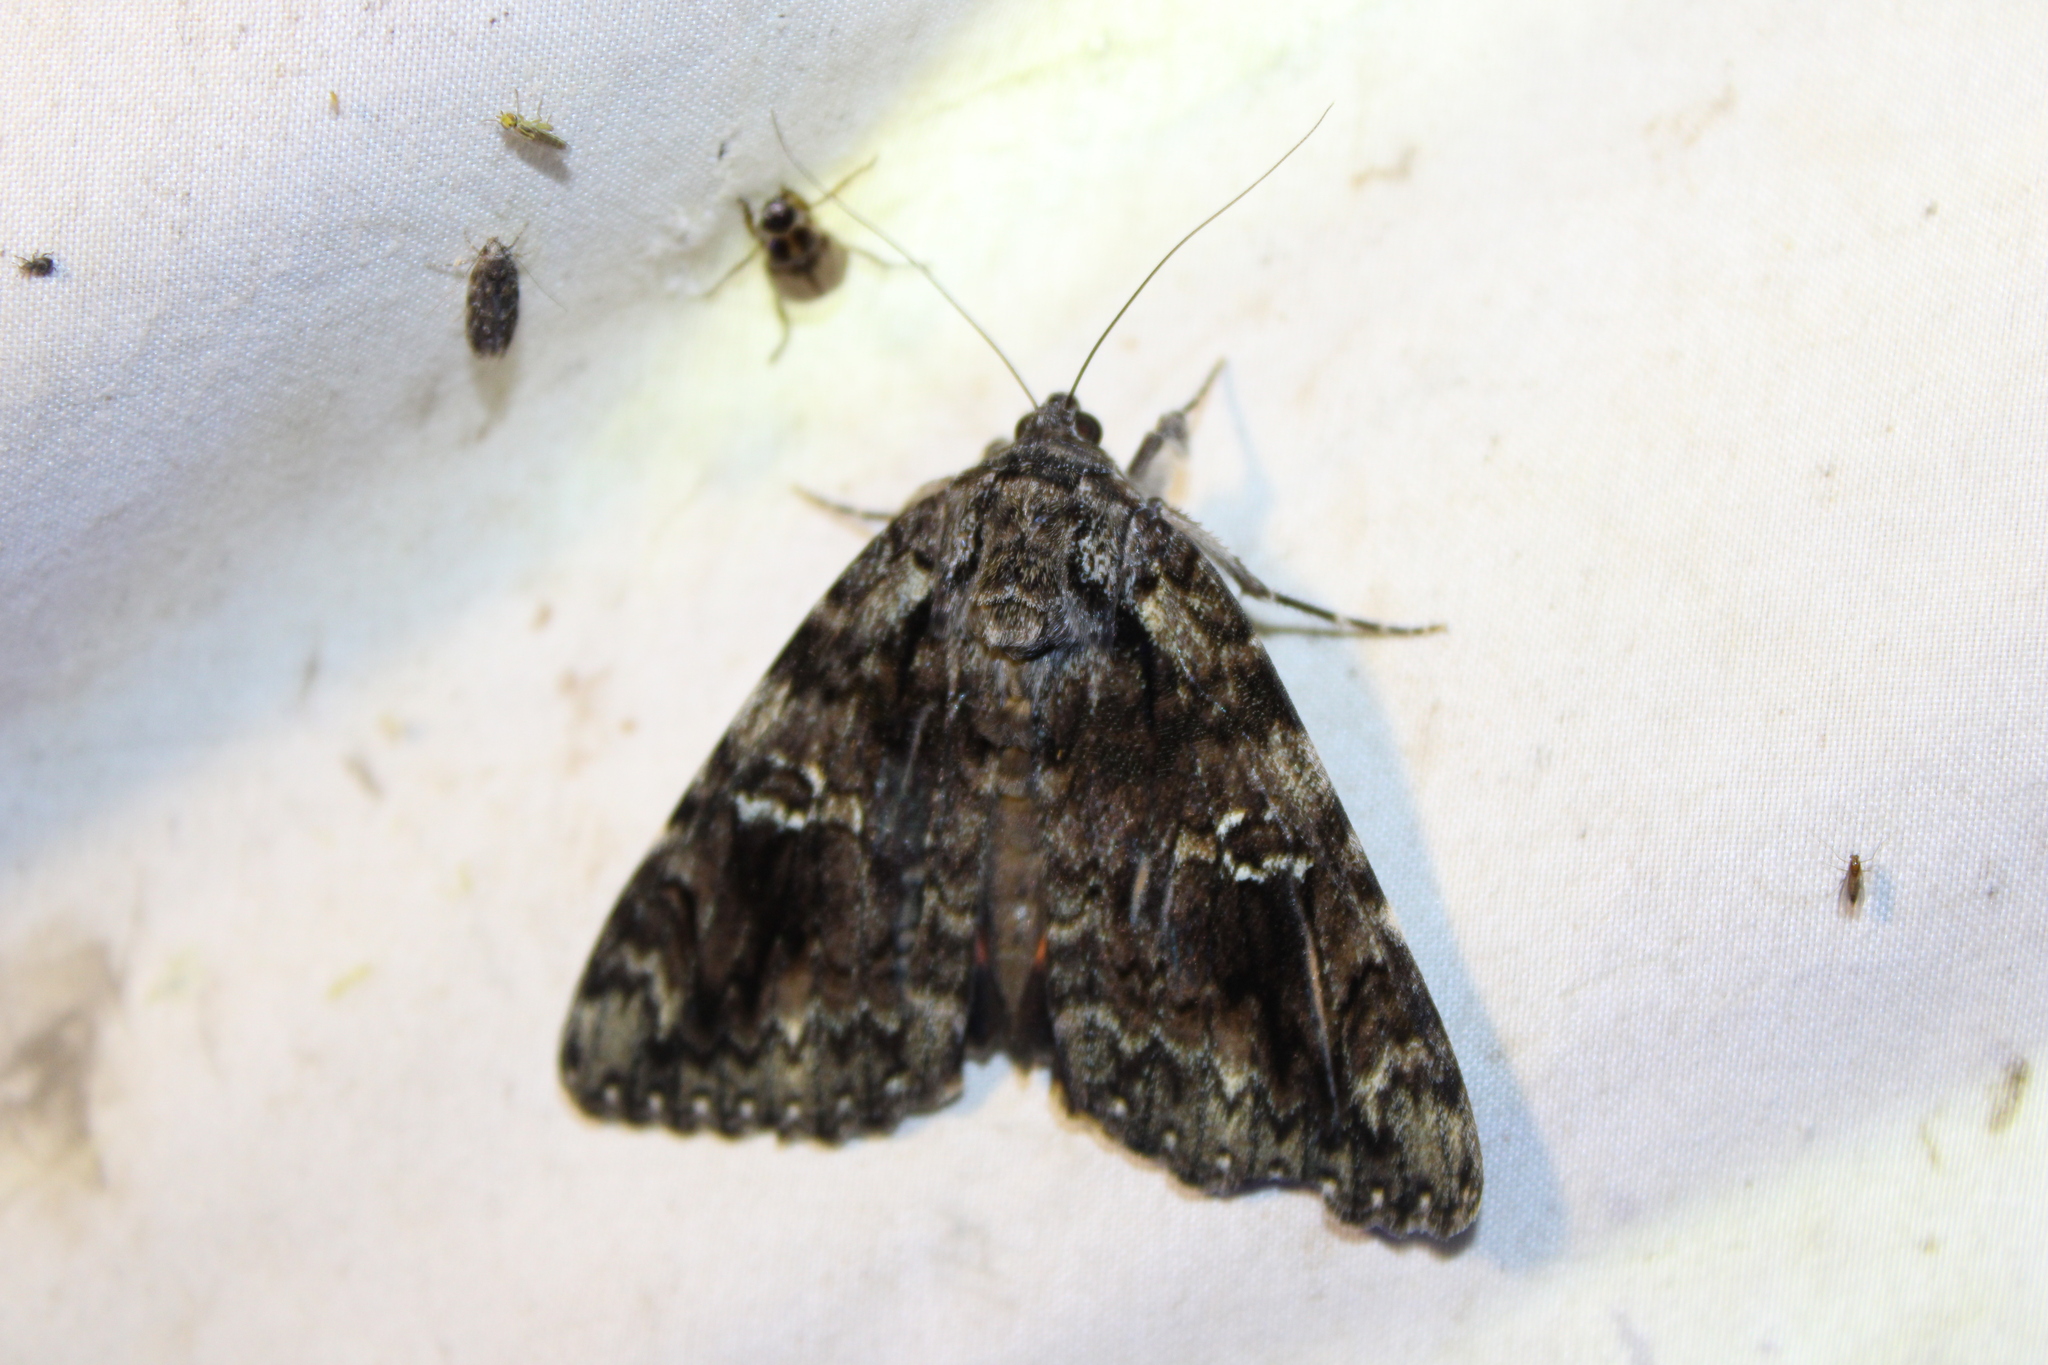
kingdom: Animalia
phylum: Arthropoda
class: Insecta
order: Lepidoptera
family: Erebidae
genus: Catocala
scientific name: Catocala ilia
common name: Ilia underwing
